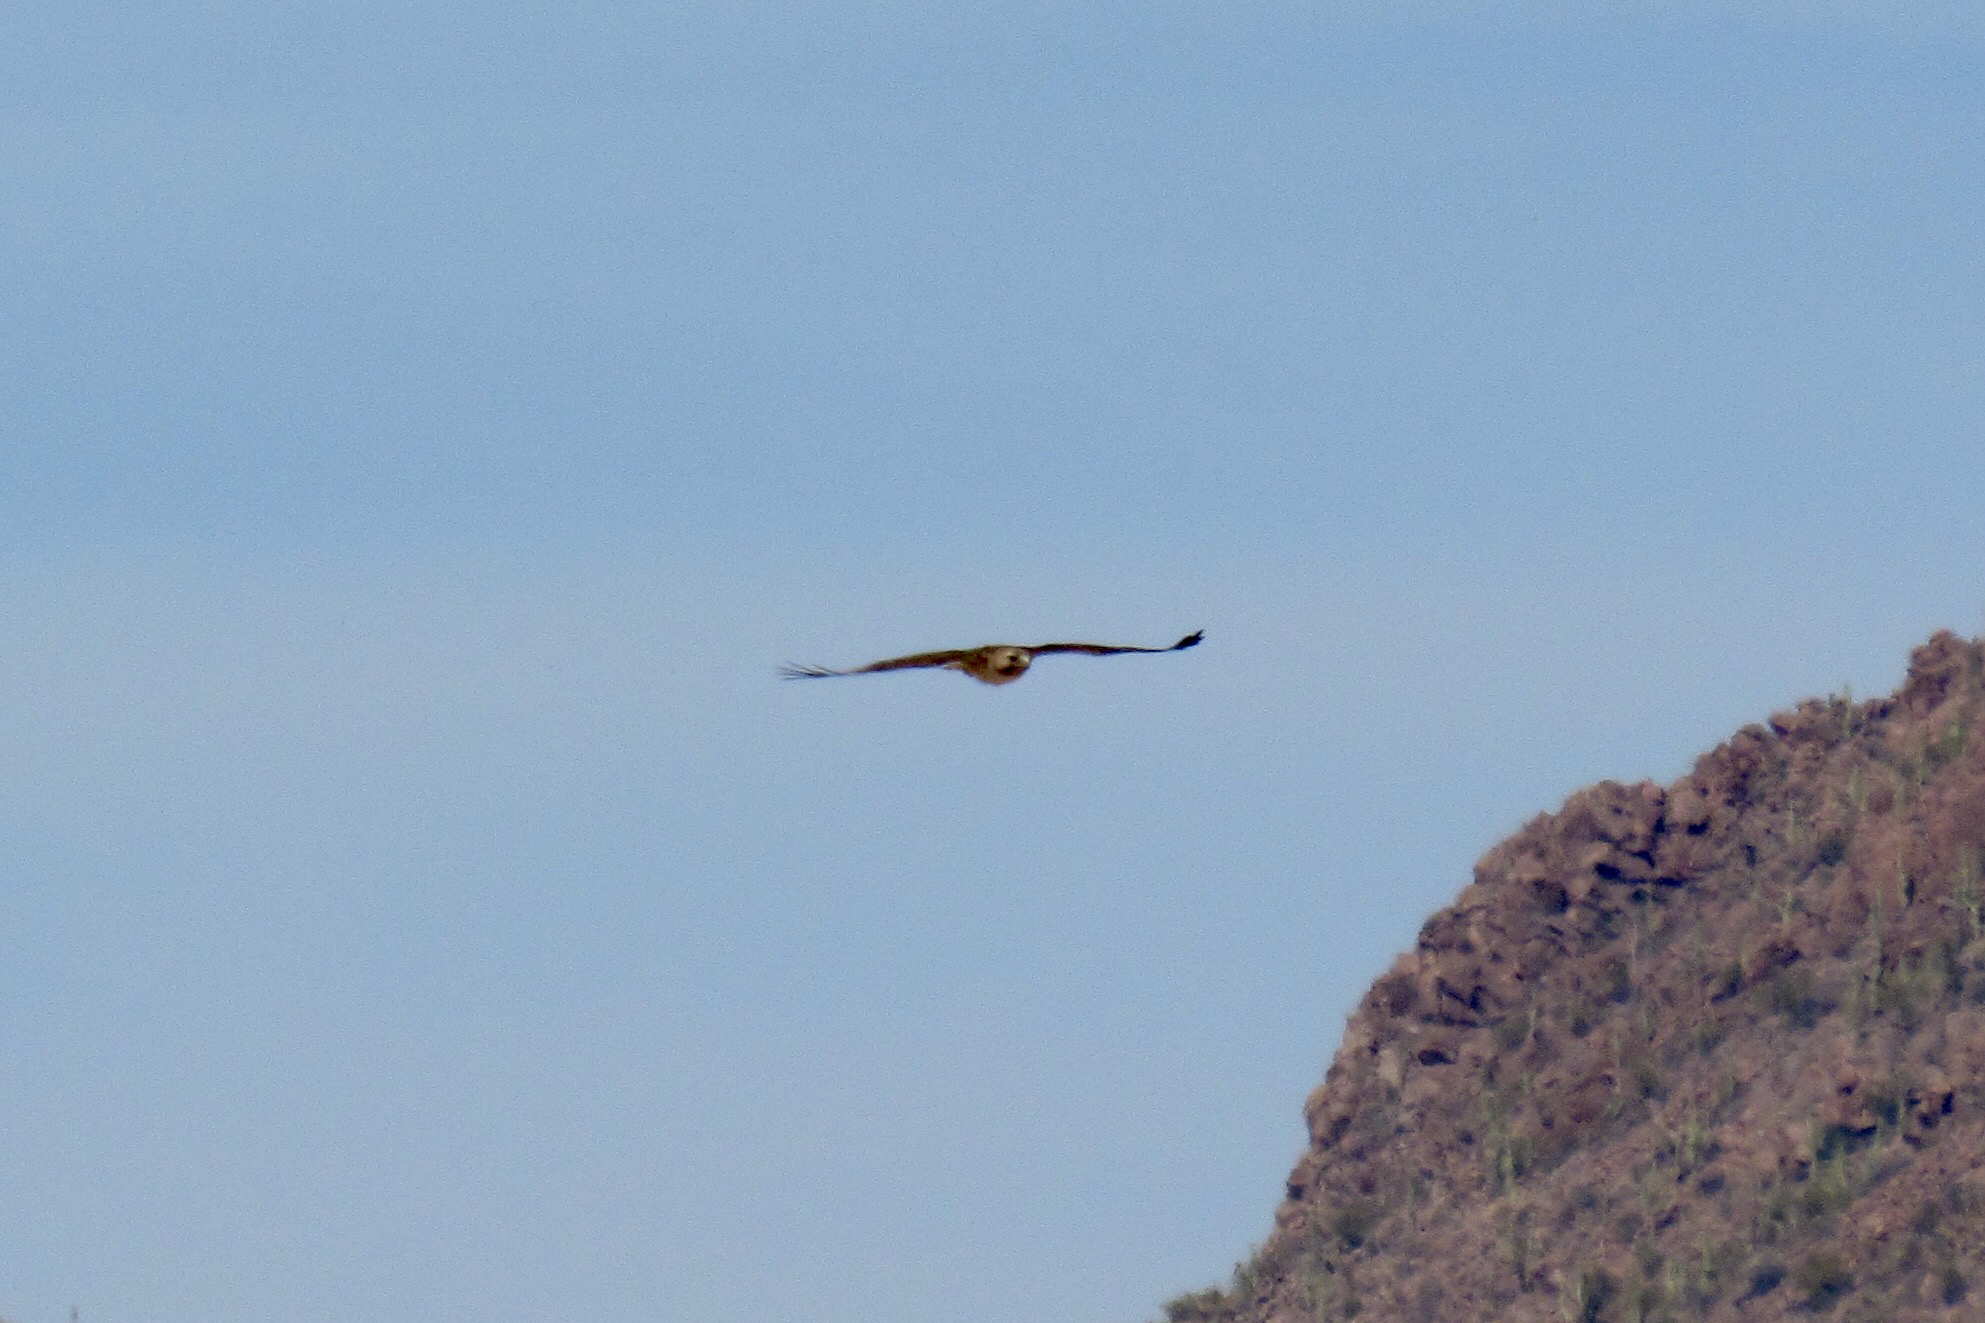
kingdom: Animalia
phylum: Chordata
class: Aves
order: Accipitriformes
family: Accipitridae
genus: Buteo
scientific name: Buteo jamaicensis
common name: Red-tailed hawk
